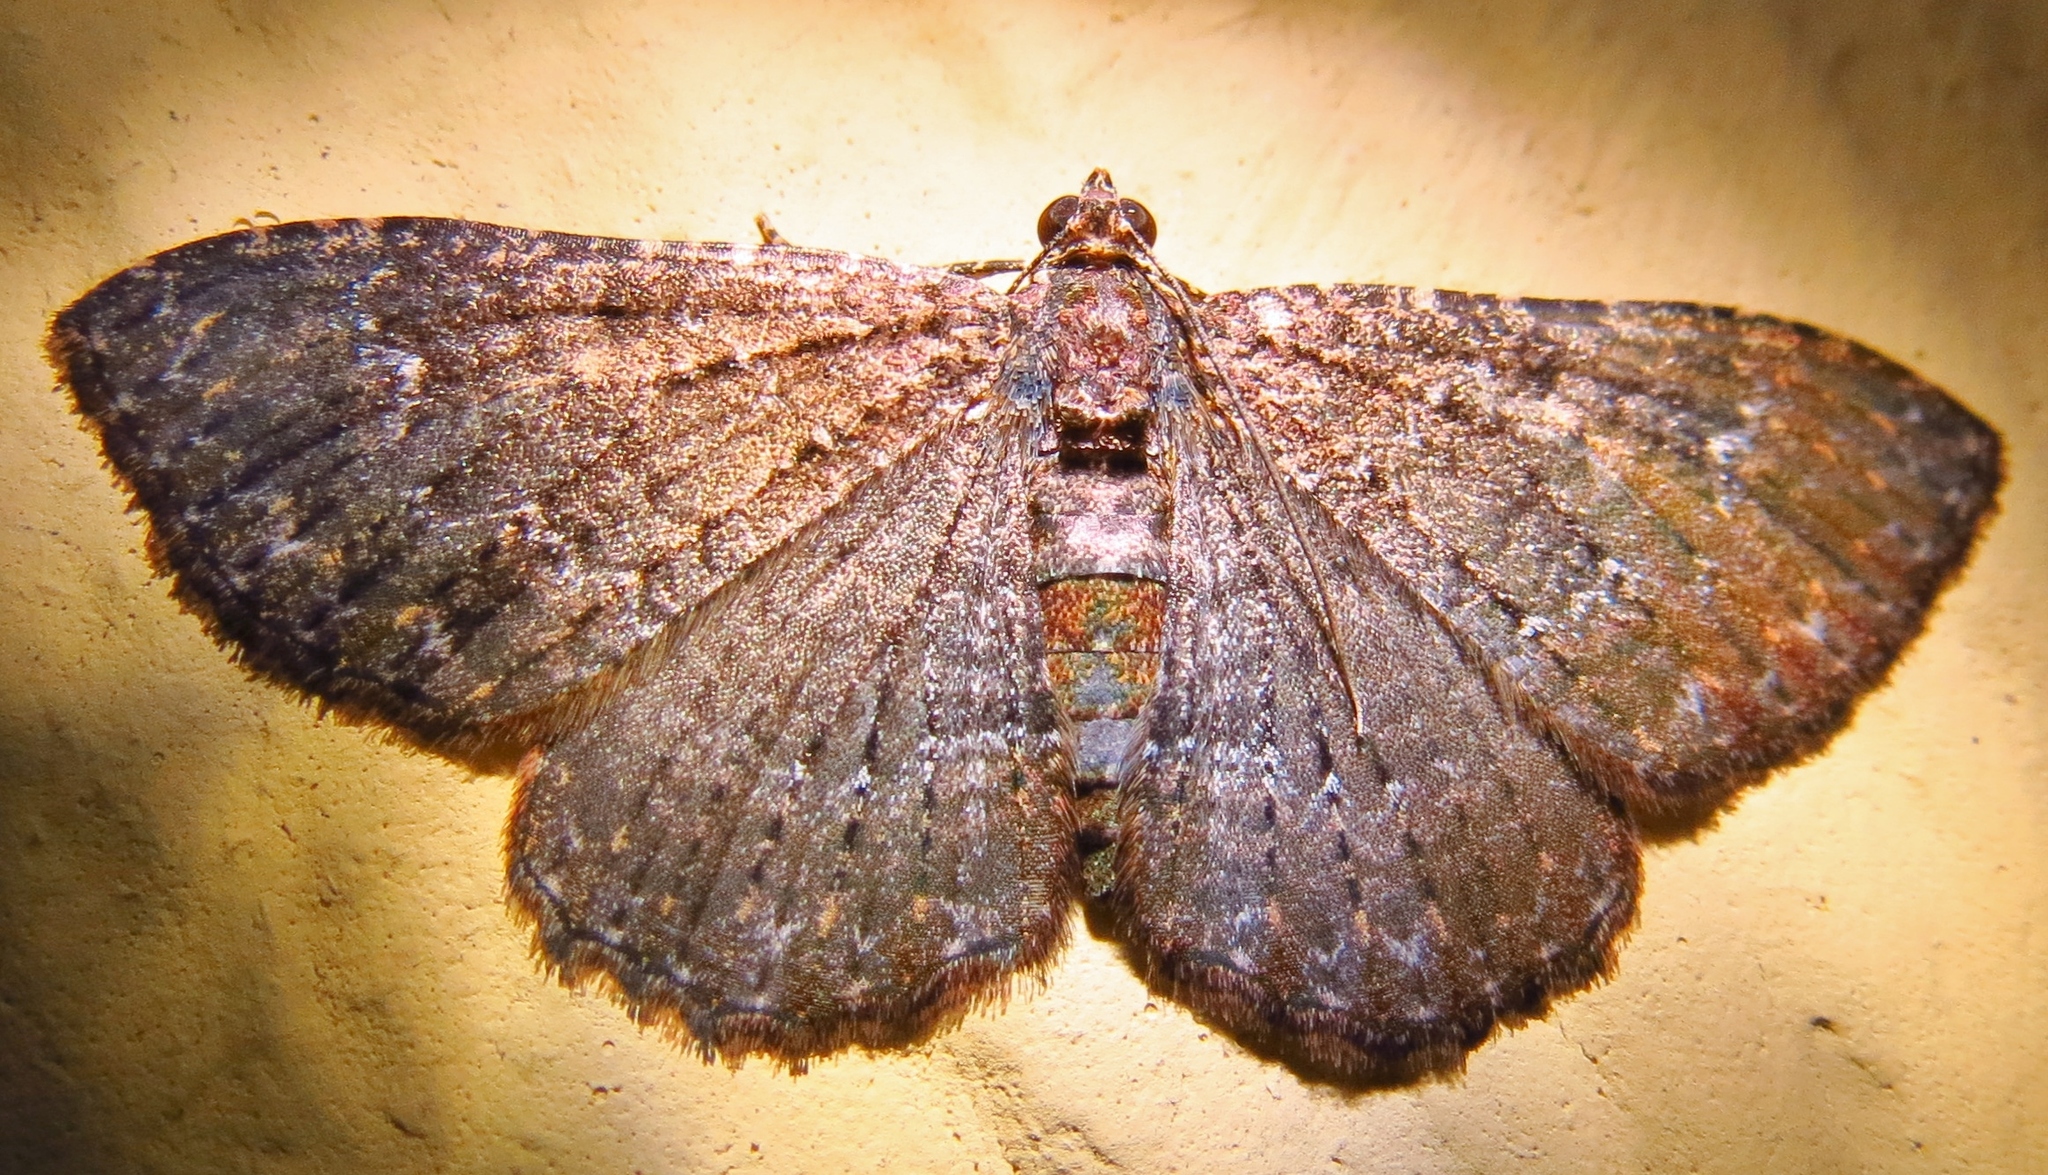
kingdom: Animalia
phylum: Arthropoda
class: Insecta
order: Lepidoptera
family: Geometridae
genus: Disclisioprocta
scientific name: Disclisioprocta stellata
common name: Somber carpet
